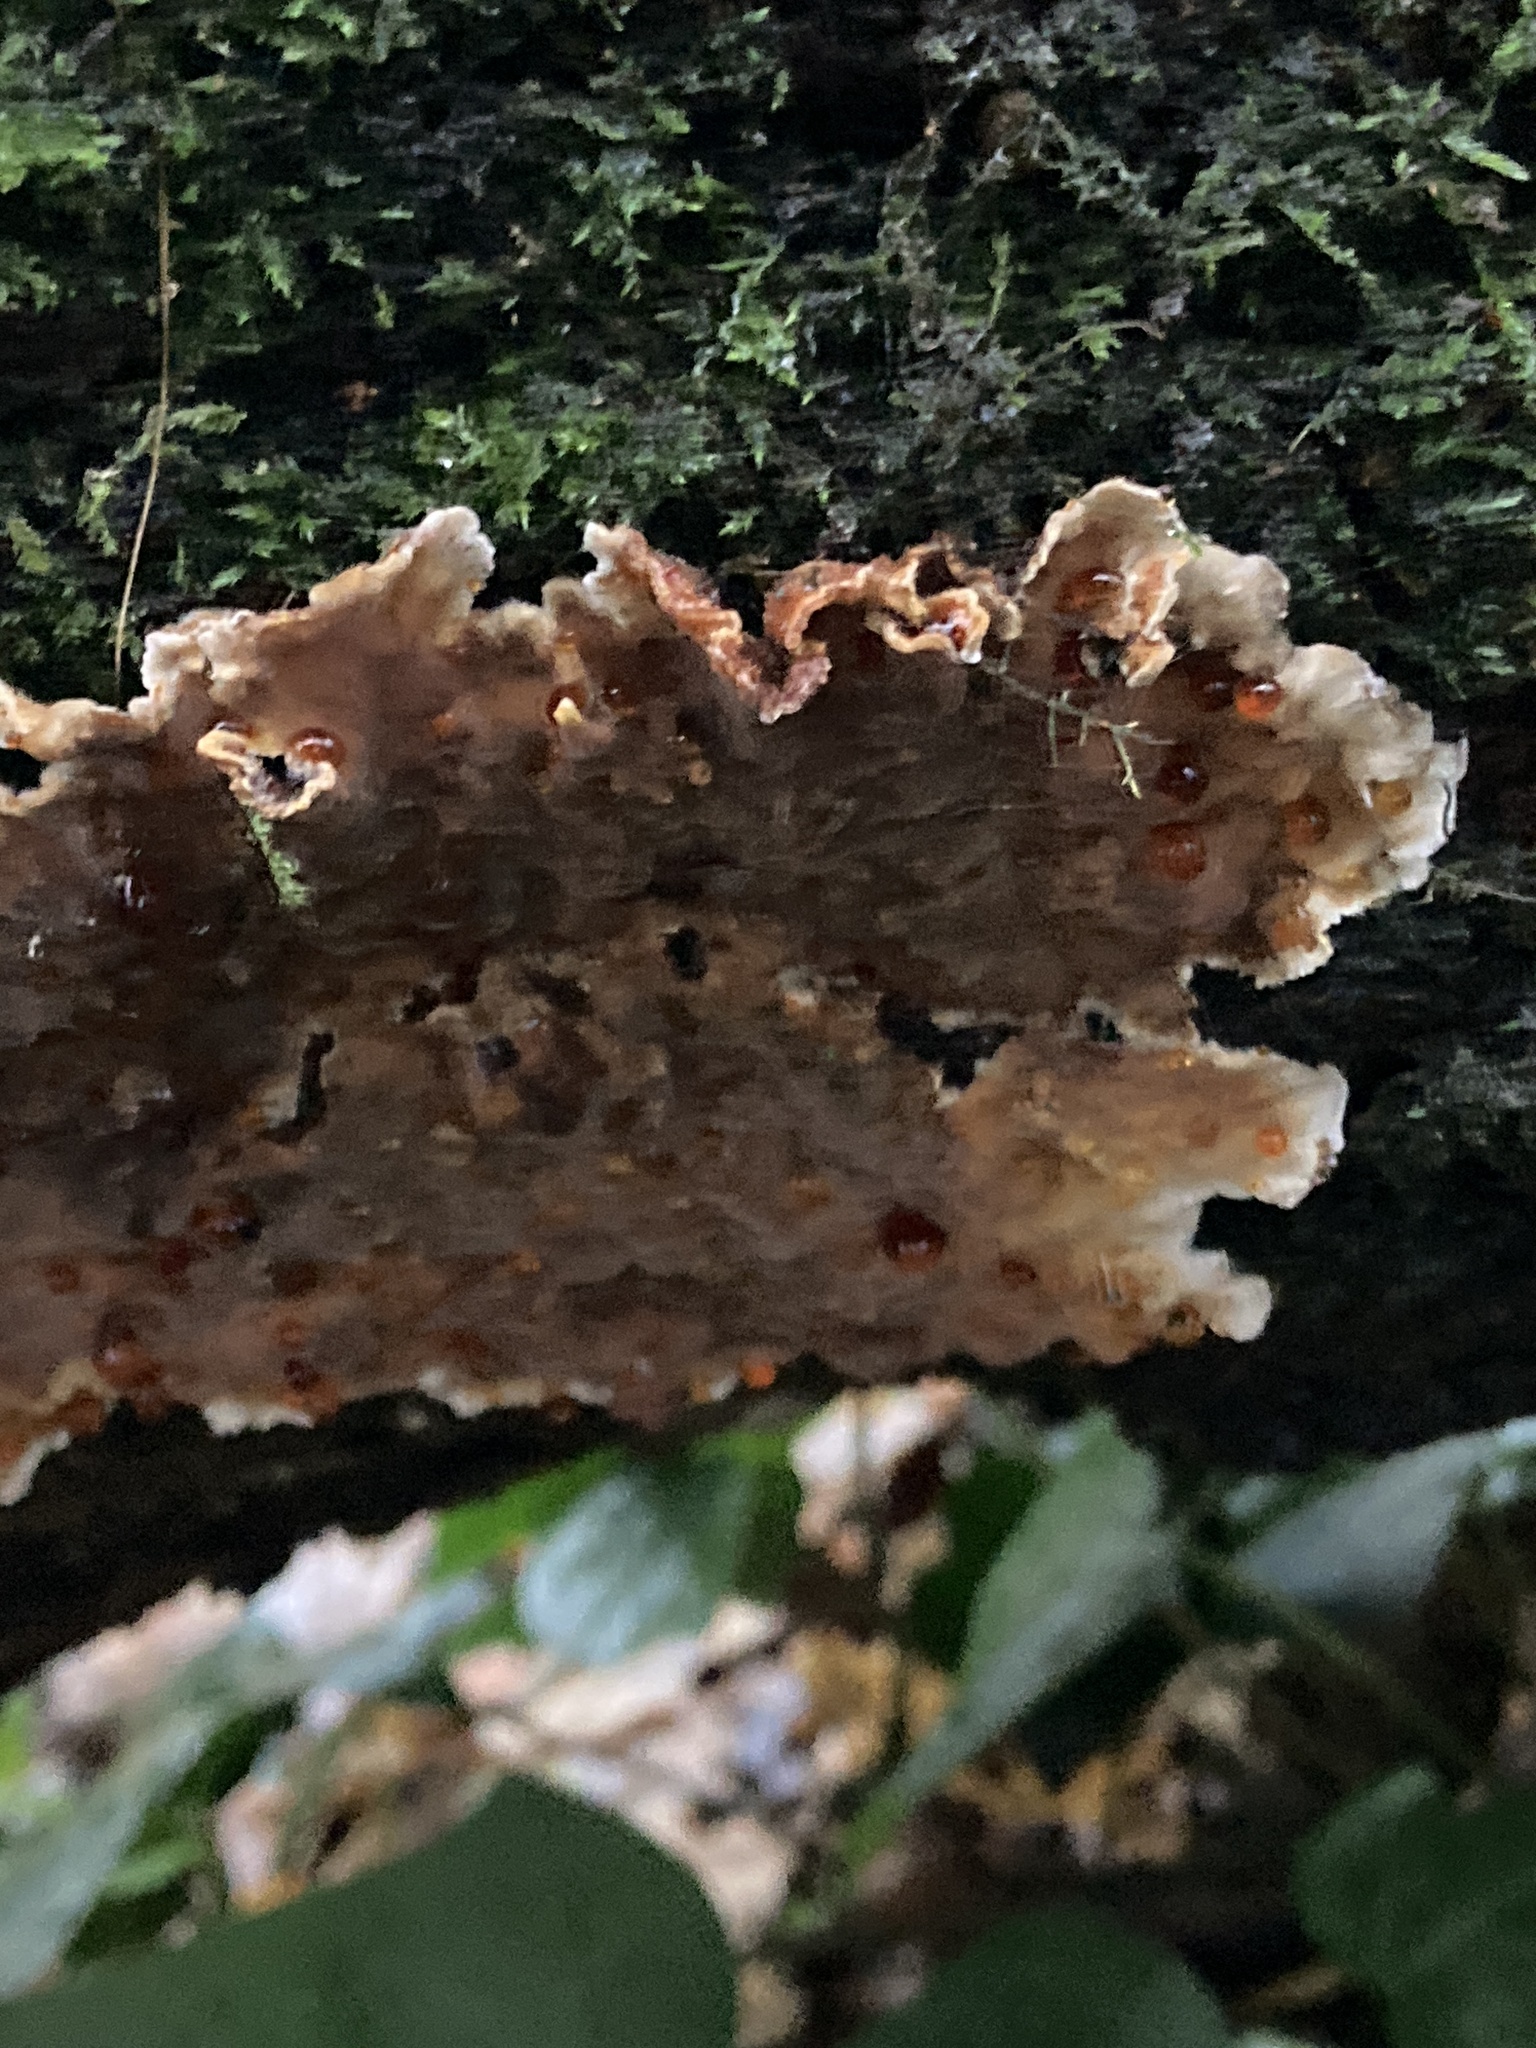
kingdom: Fungi
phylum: Basidiomycota
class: Agaricomycetes
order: Russulales
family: Stereaceae
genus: Stereum
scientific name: Stereum rugosum
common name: Bleeding broadleaf crust
